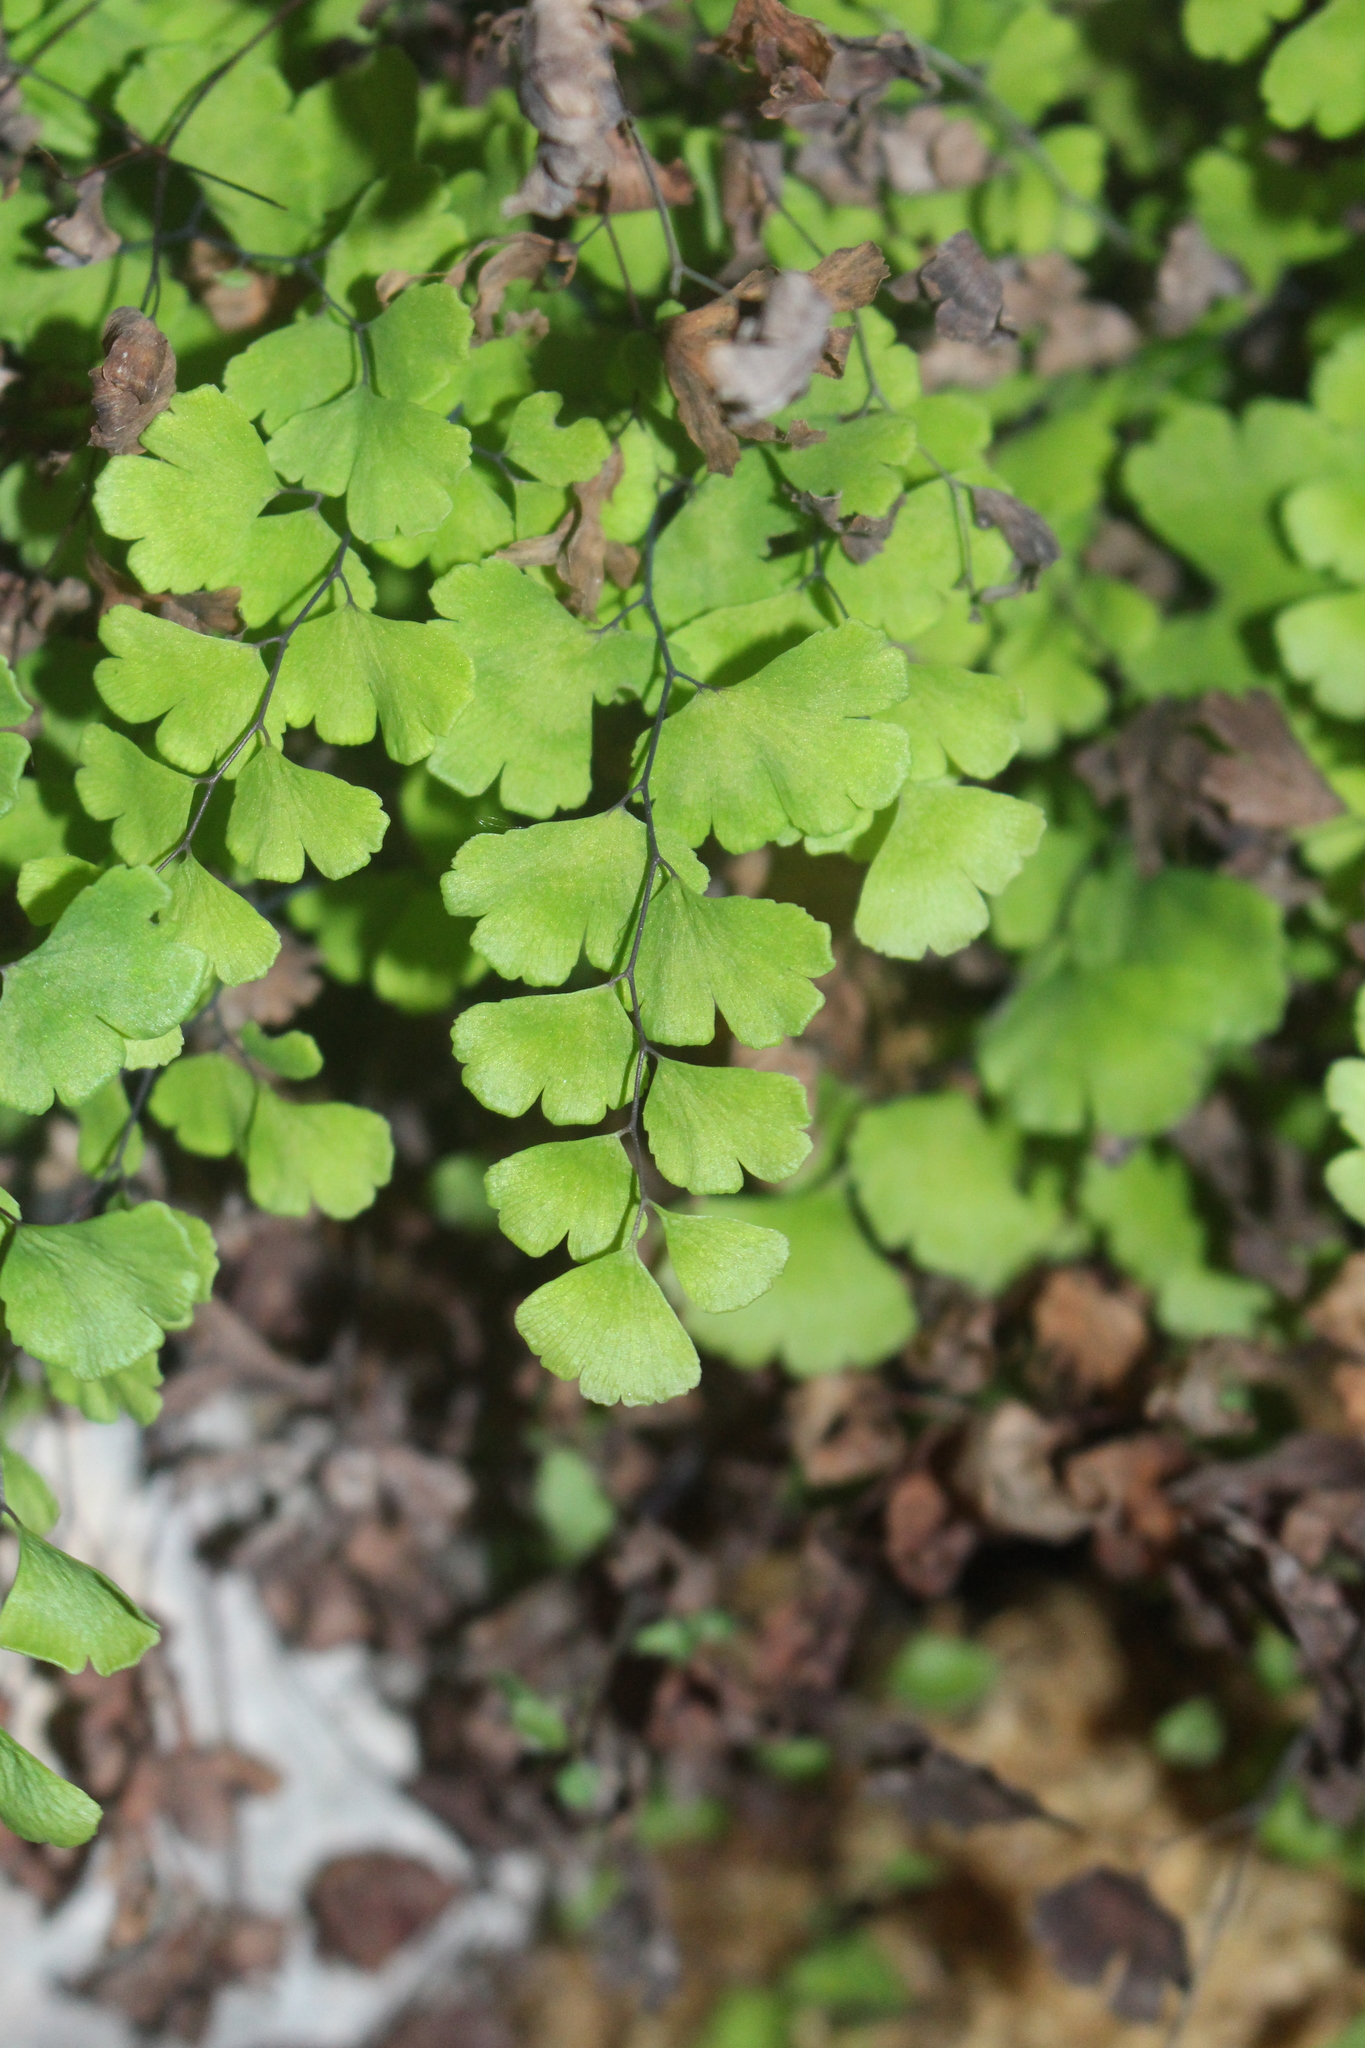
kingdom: Plantae
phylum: Tracheophyta
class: Polypodiopsida
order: Polypodiales
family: Pteridaceae
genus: Adiantum
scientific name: Adiantum capillus-veneris
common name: Maidenhair fern
